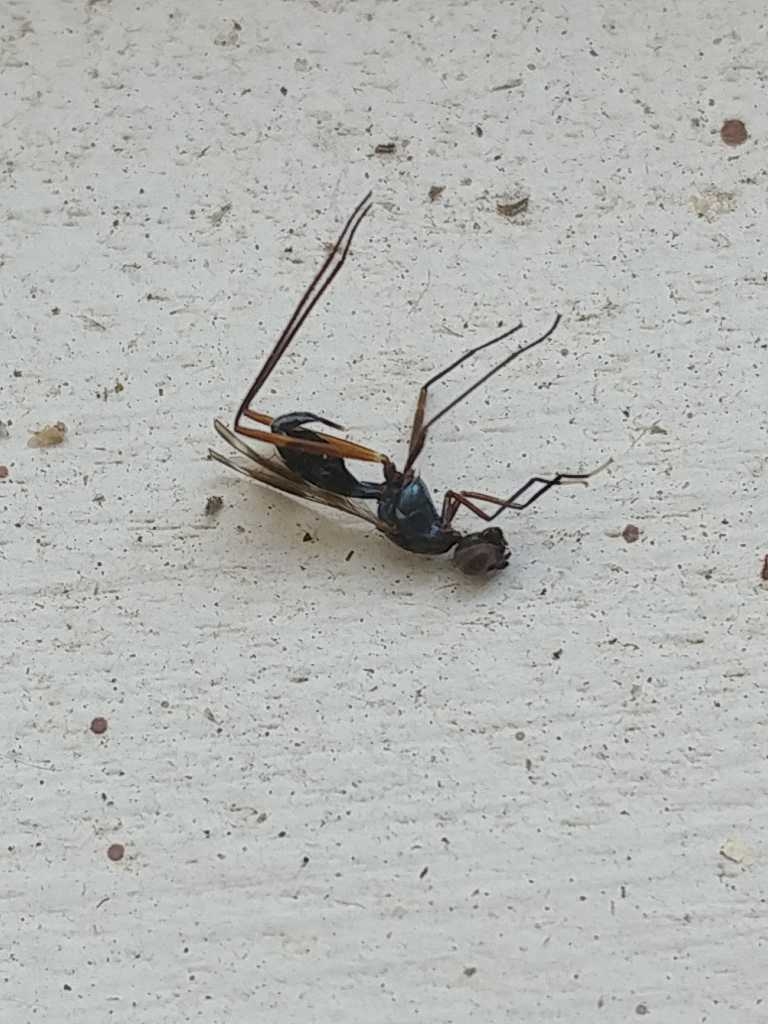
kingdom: Animalia
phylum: Arthropoda
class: Insecta
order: Diptera
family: Micropezidae
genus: Taeniaptera
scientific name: Taeniaptera trivittata
